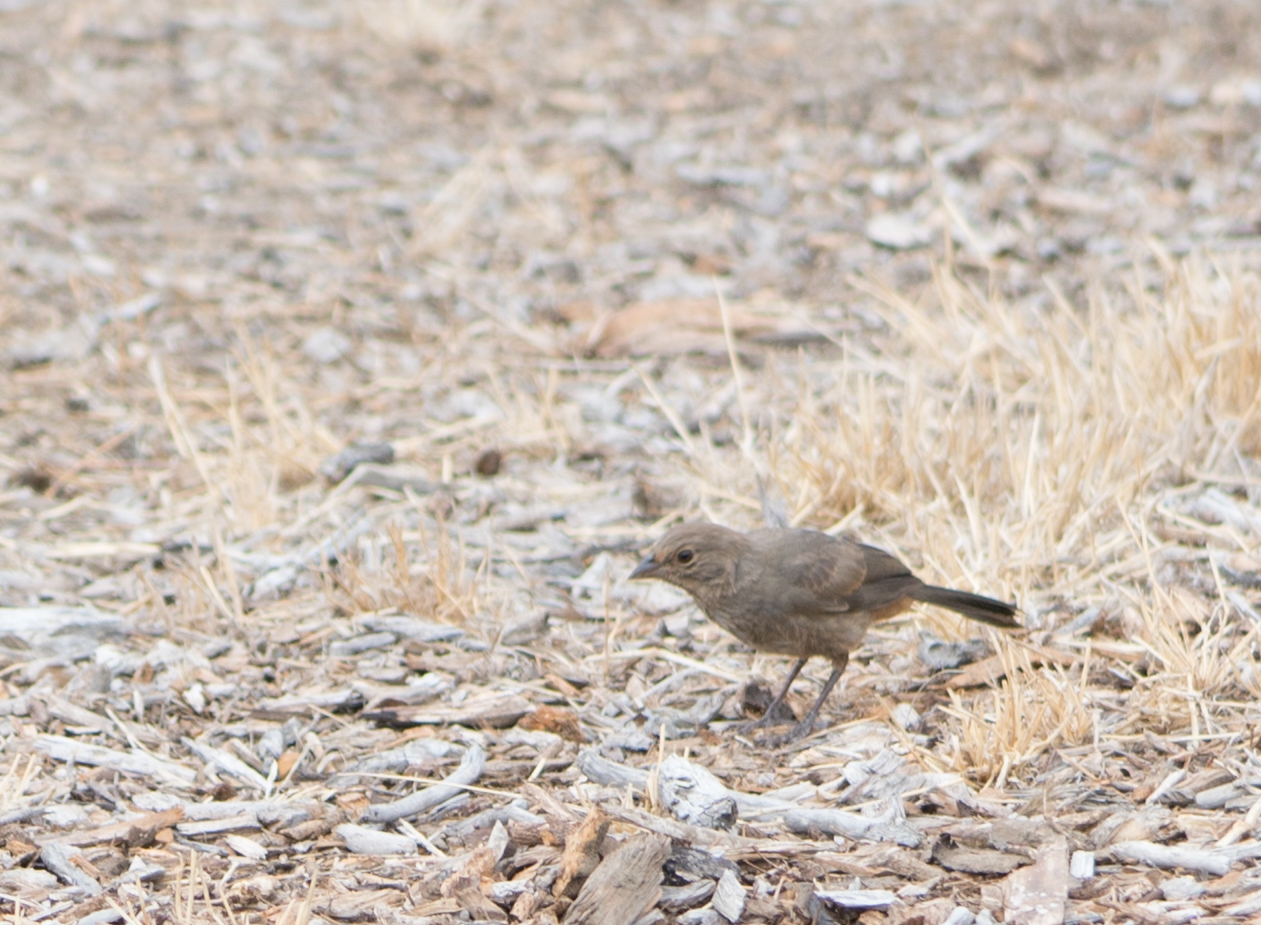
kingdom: Animalia
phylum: Chordata
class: Aves
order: Passeriformes
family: Passerellidae
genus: Melozone
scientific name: Melozone crissalis
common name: California towhee
